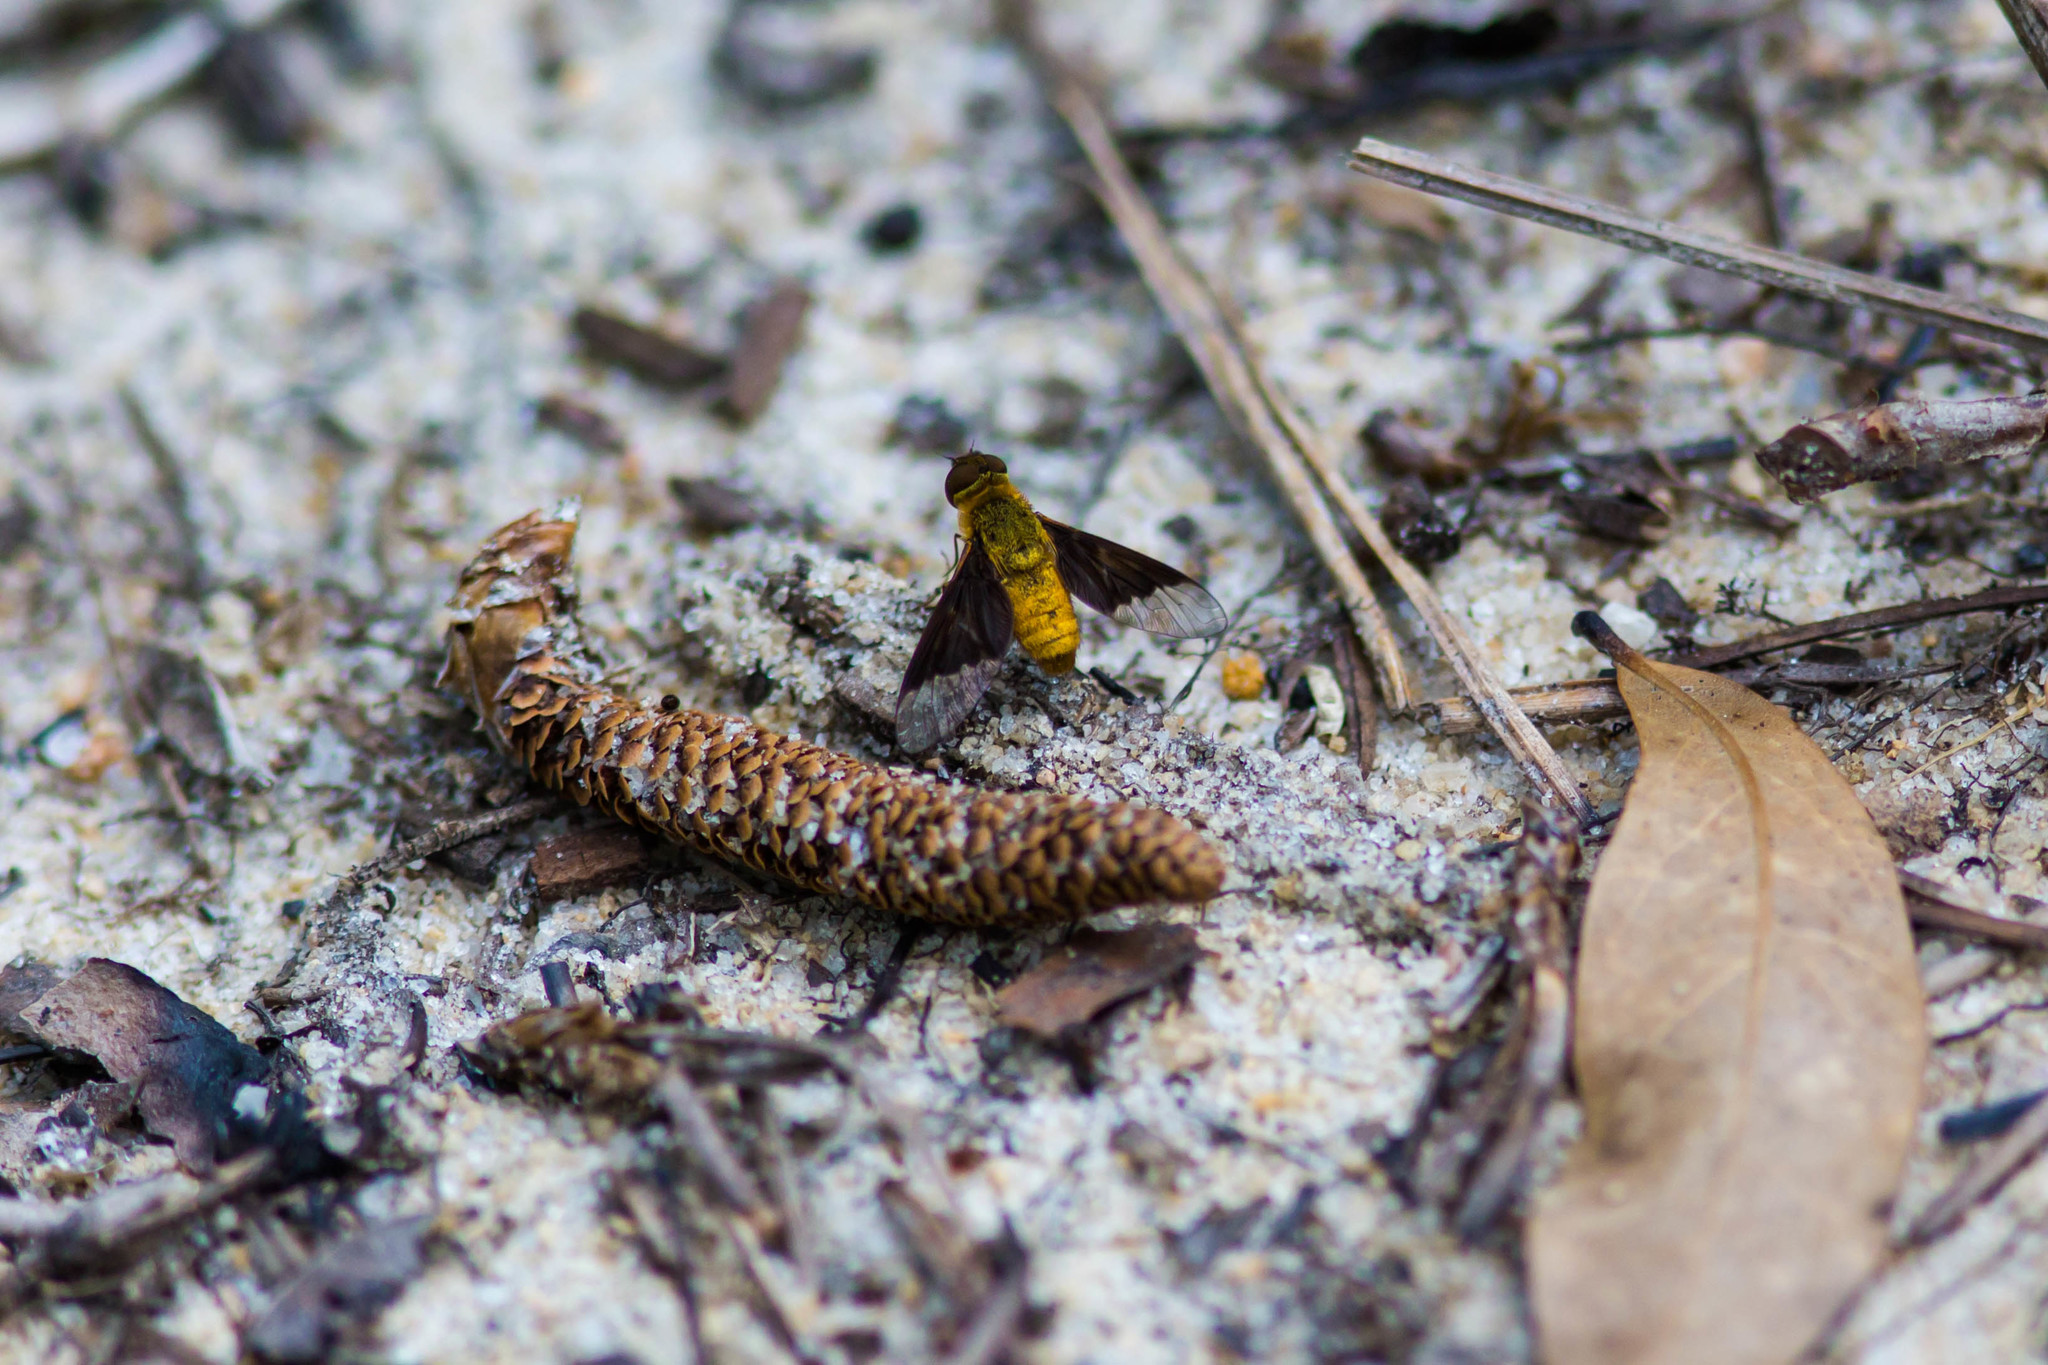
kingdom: Animalia
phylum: Arthropoda
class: Insecta
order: Diptera
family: Bombyliidae
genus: Chrysanthrax
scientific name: Chrysanthrax cypris
